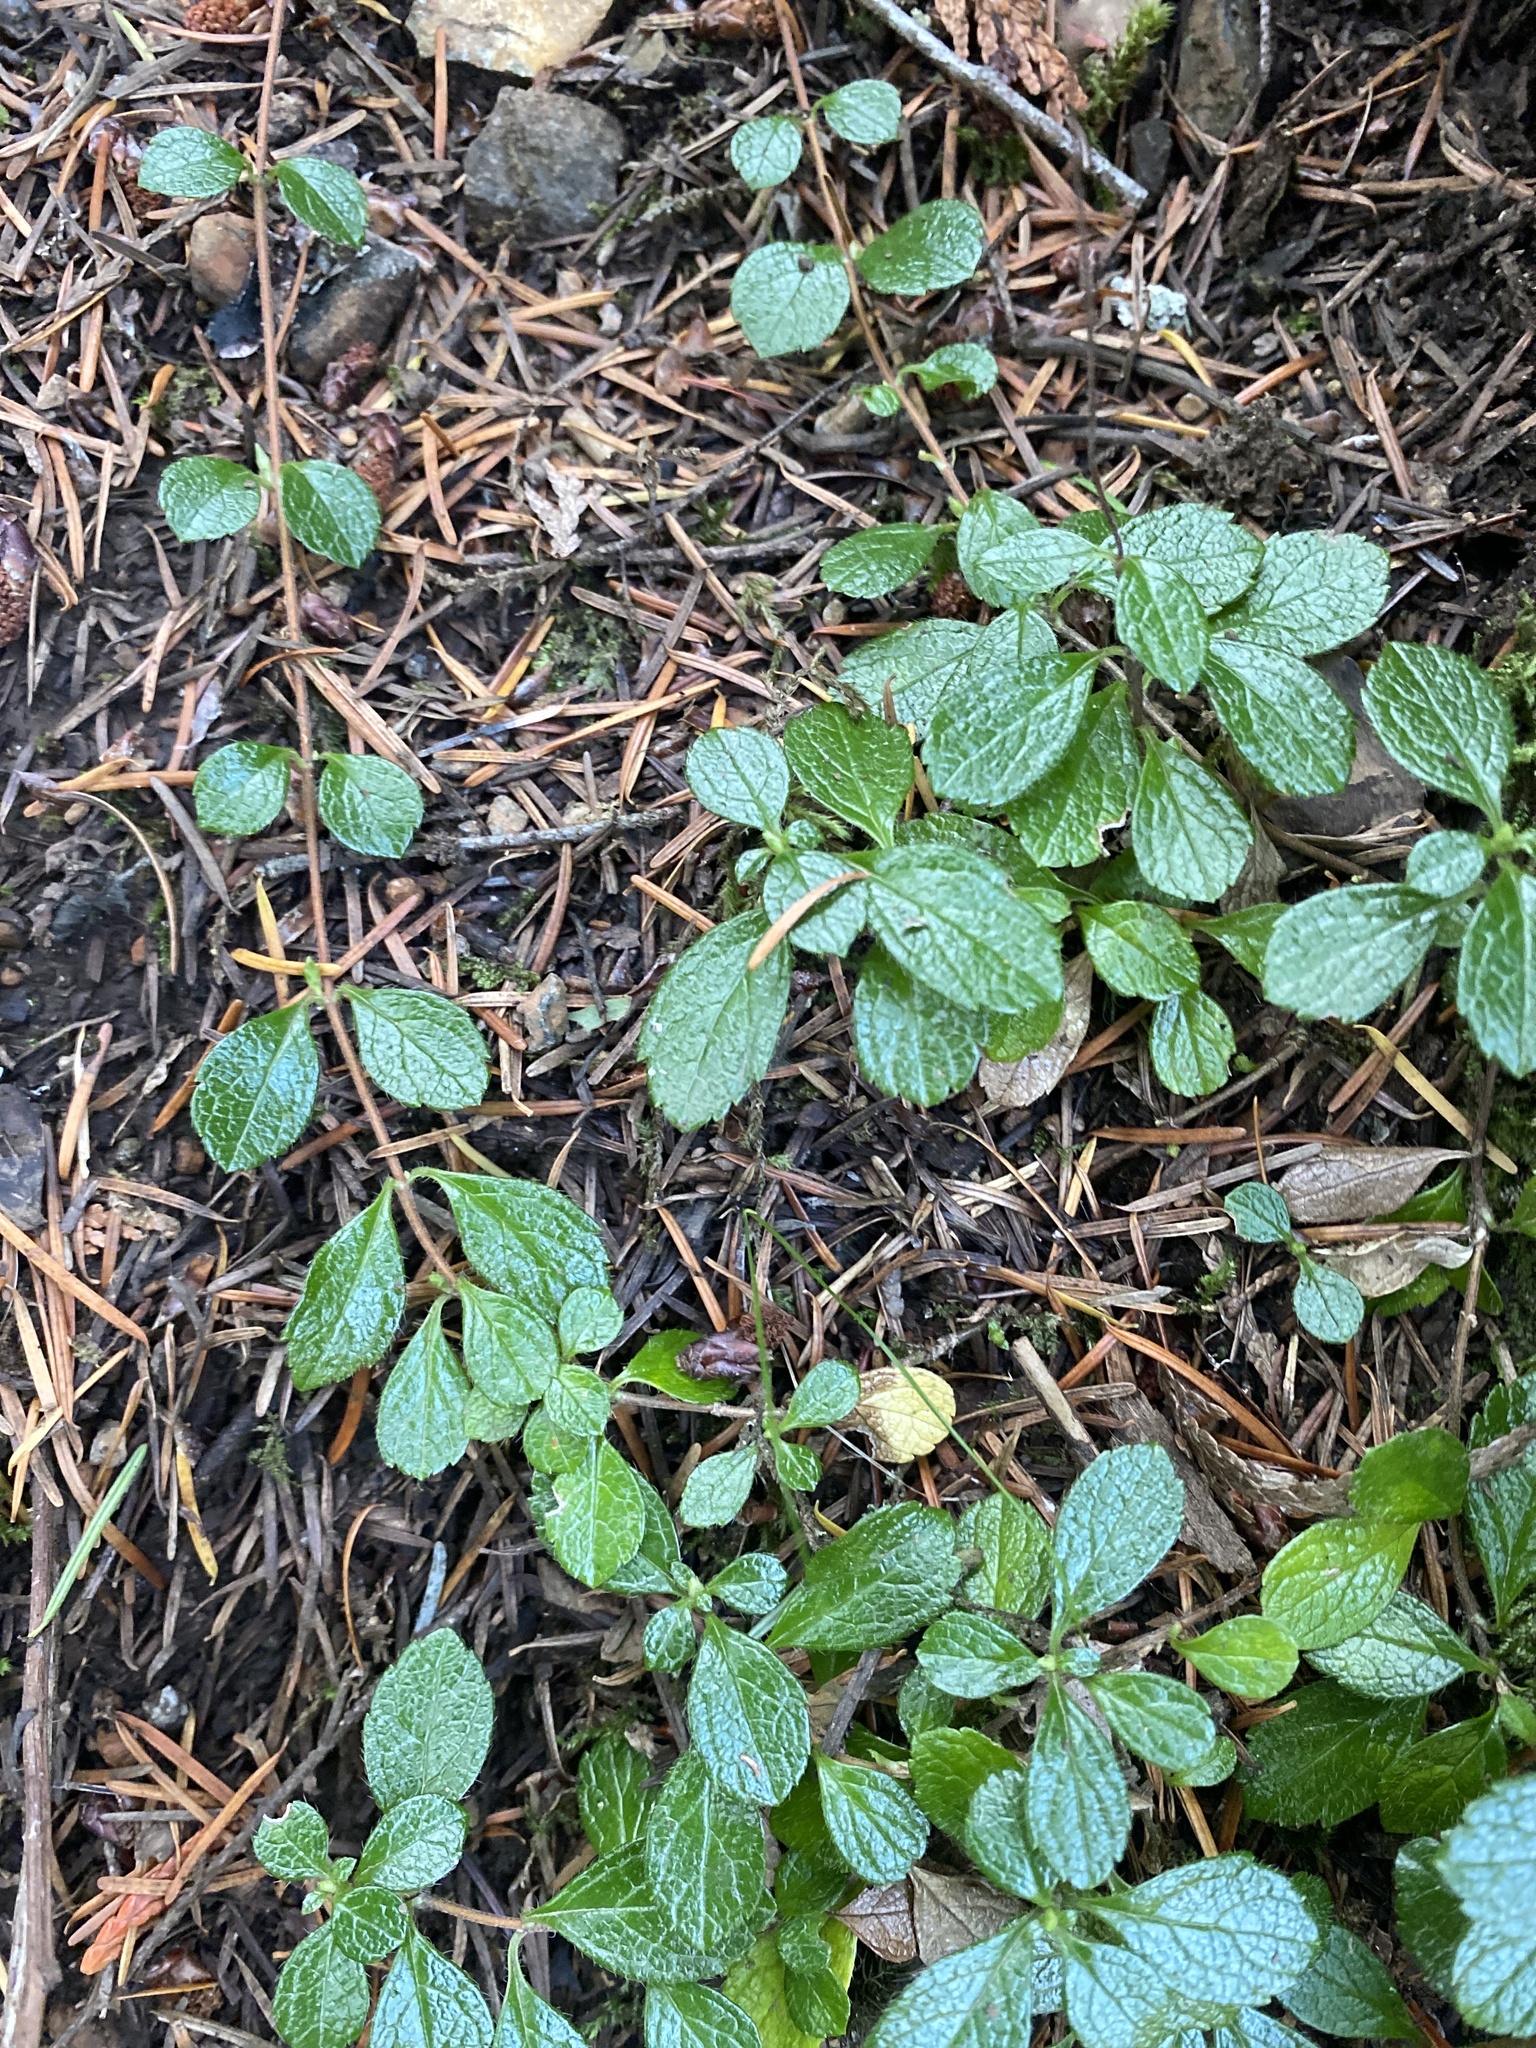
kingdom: Plantae
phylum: Tracheophyta
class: Magnoliopsida
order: Dipsacales
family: Caprifoliaceae
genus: Linnaea
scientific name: Linnaea borealis
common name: Twinflower
